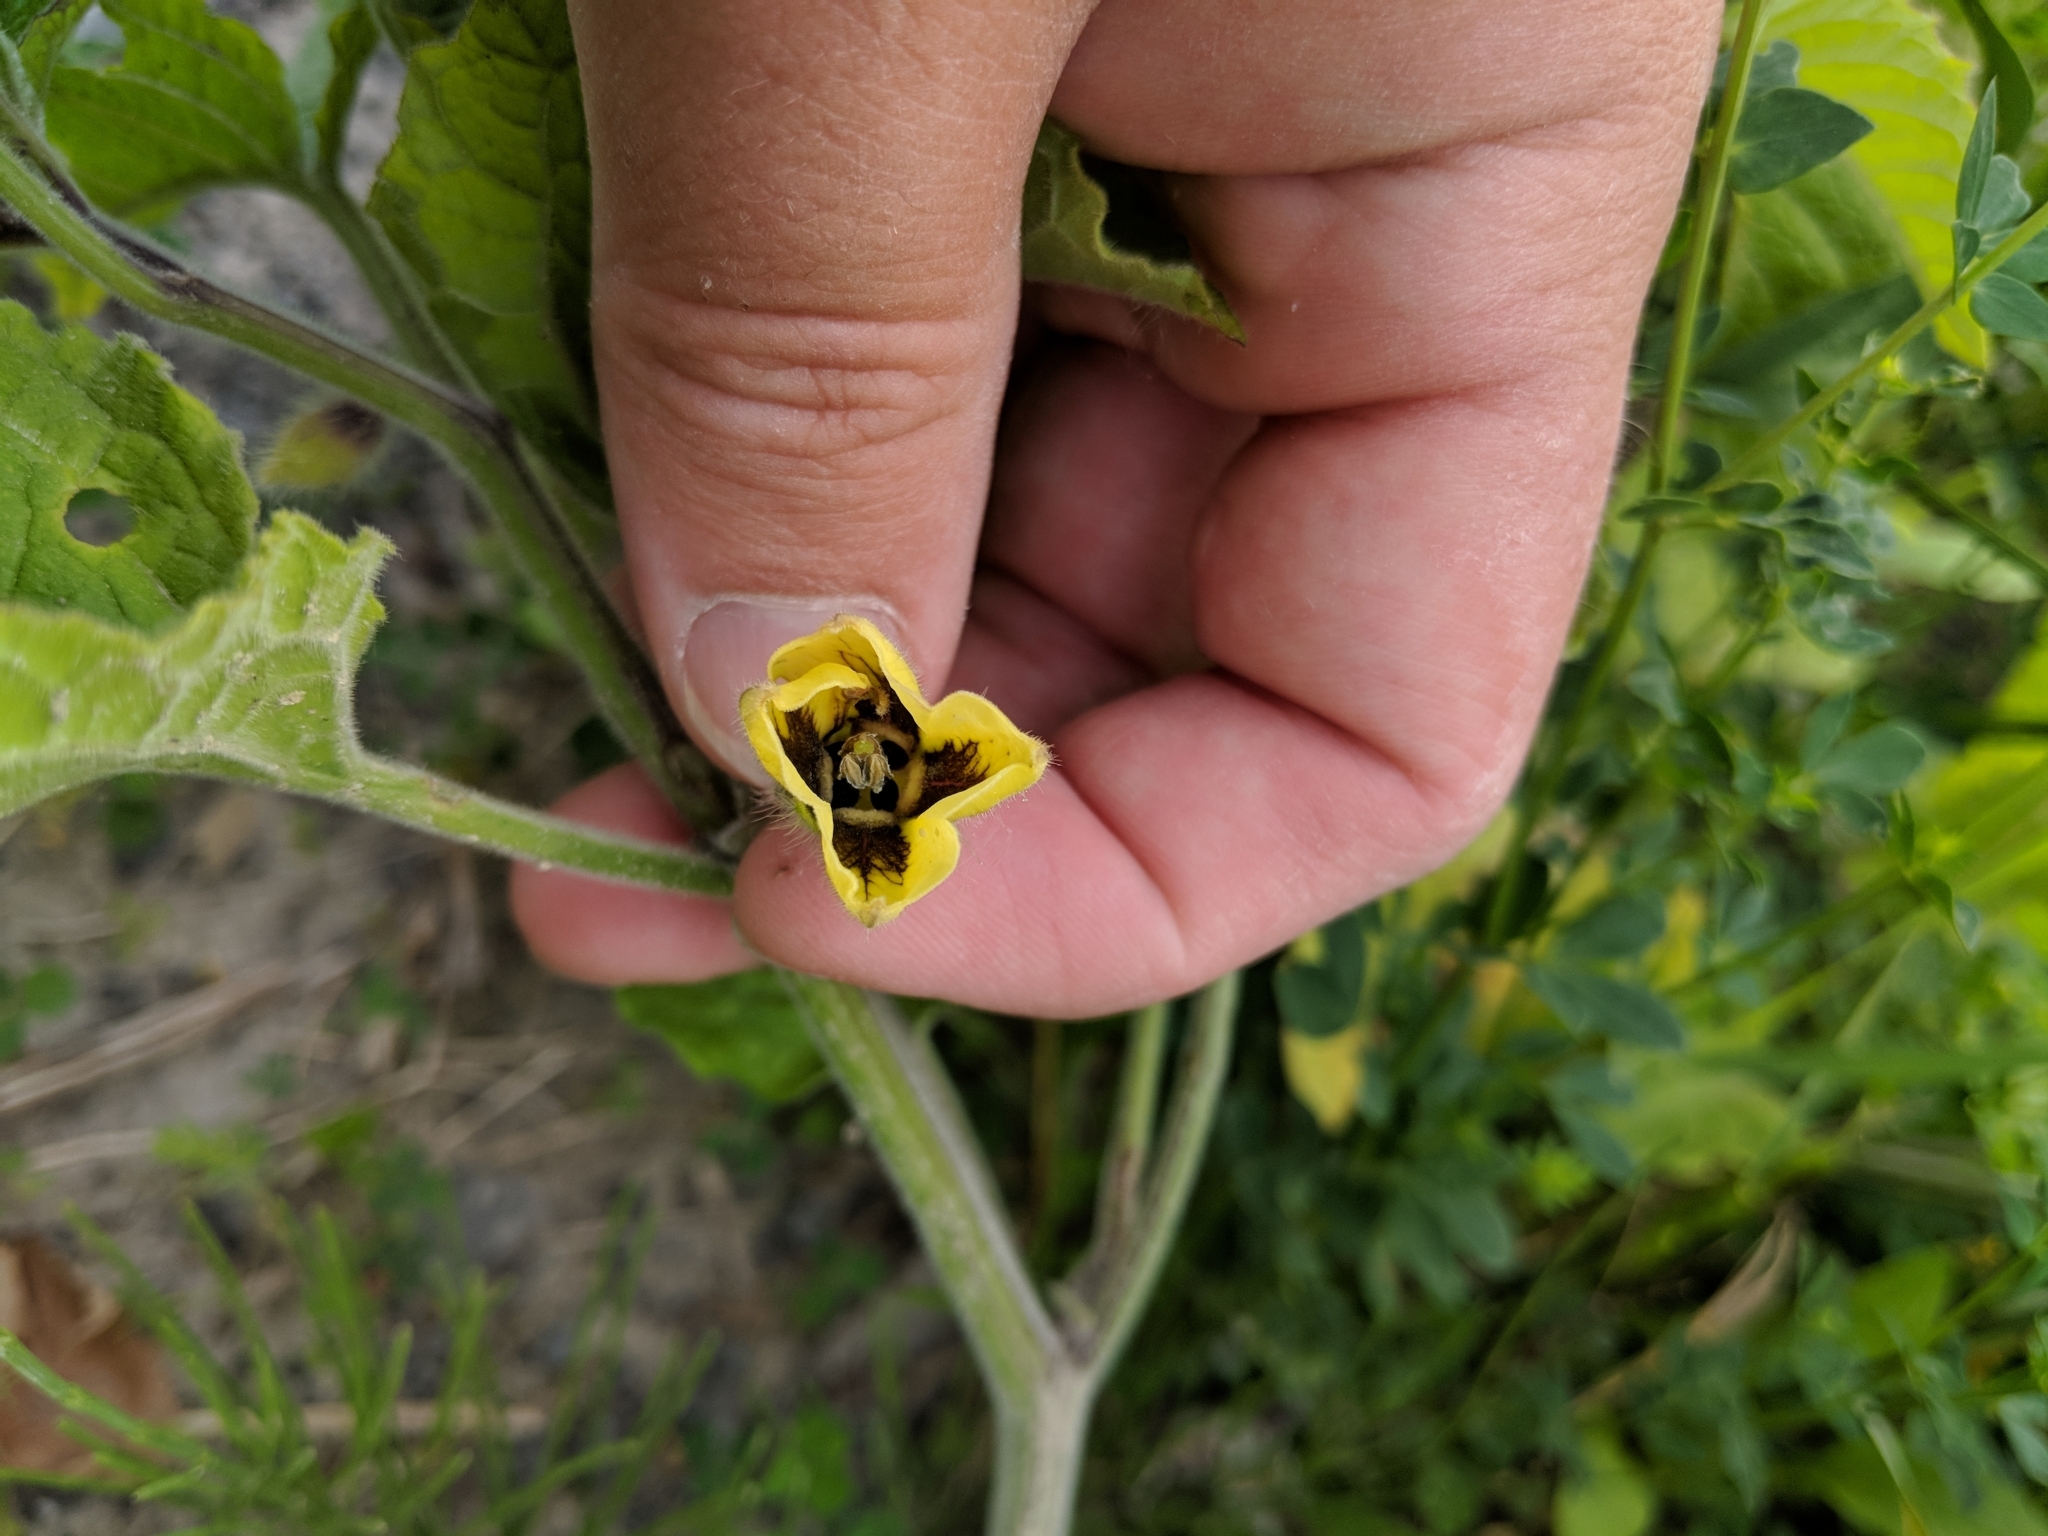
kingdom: Plantae
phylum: Tracheophyta
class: Magnoliopsida
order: Solanales
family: Solanaceae
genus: Physalis
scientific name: Physalis heterophylla
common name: Clammy ground-cherry
